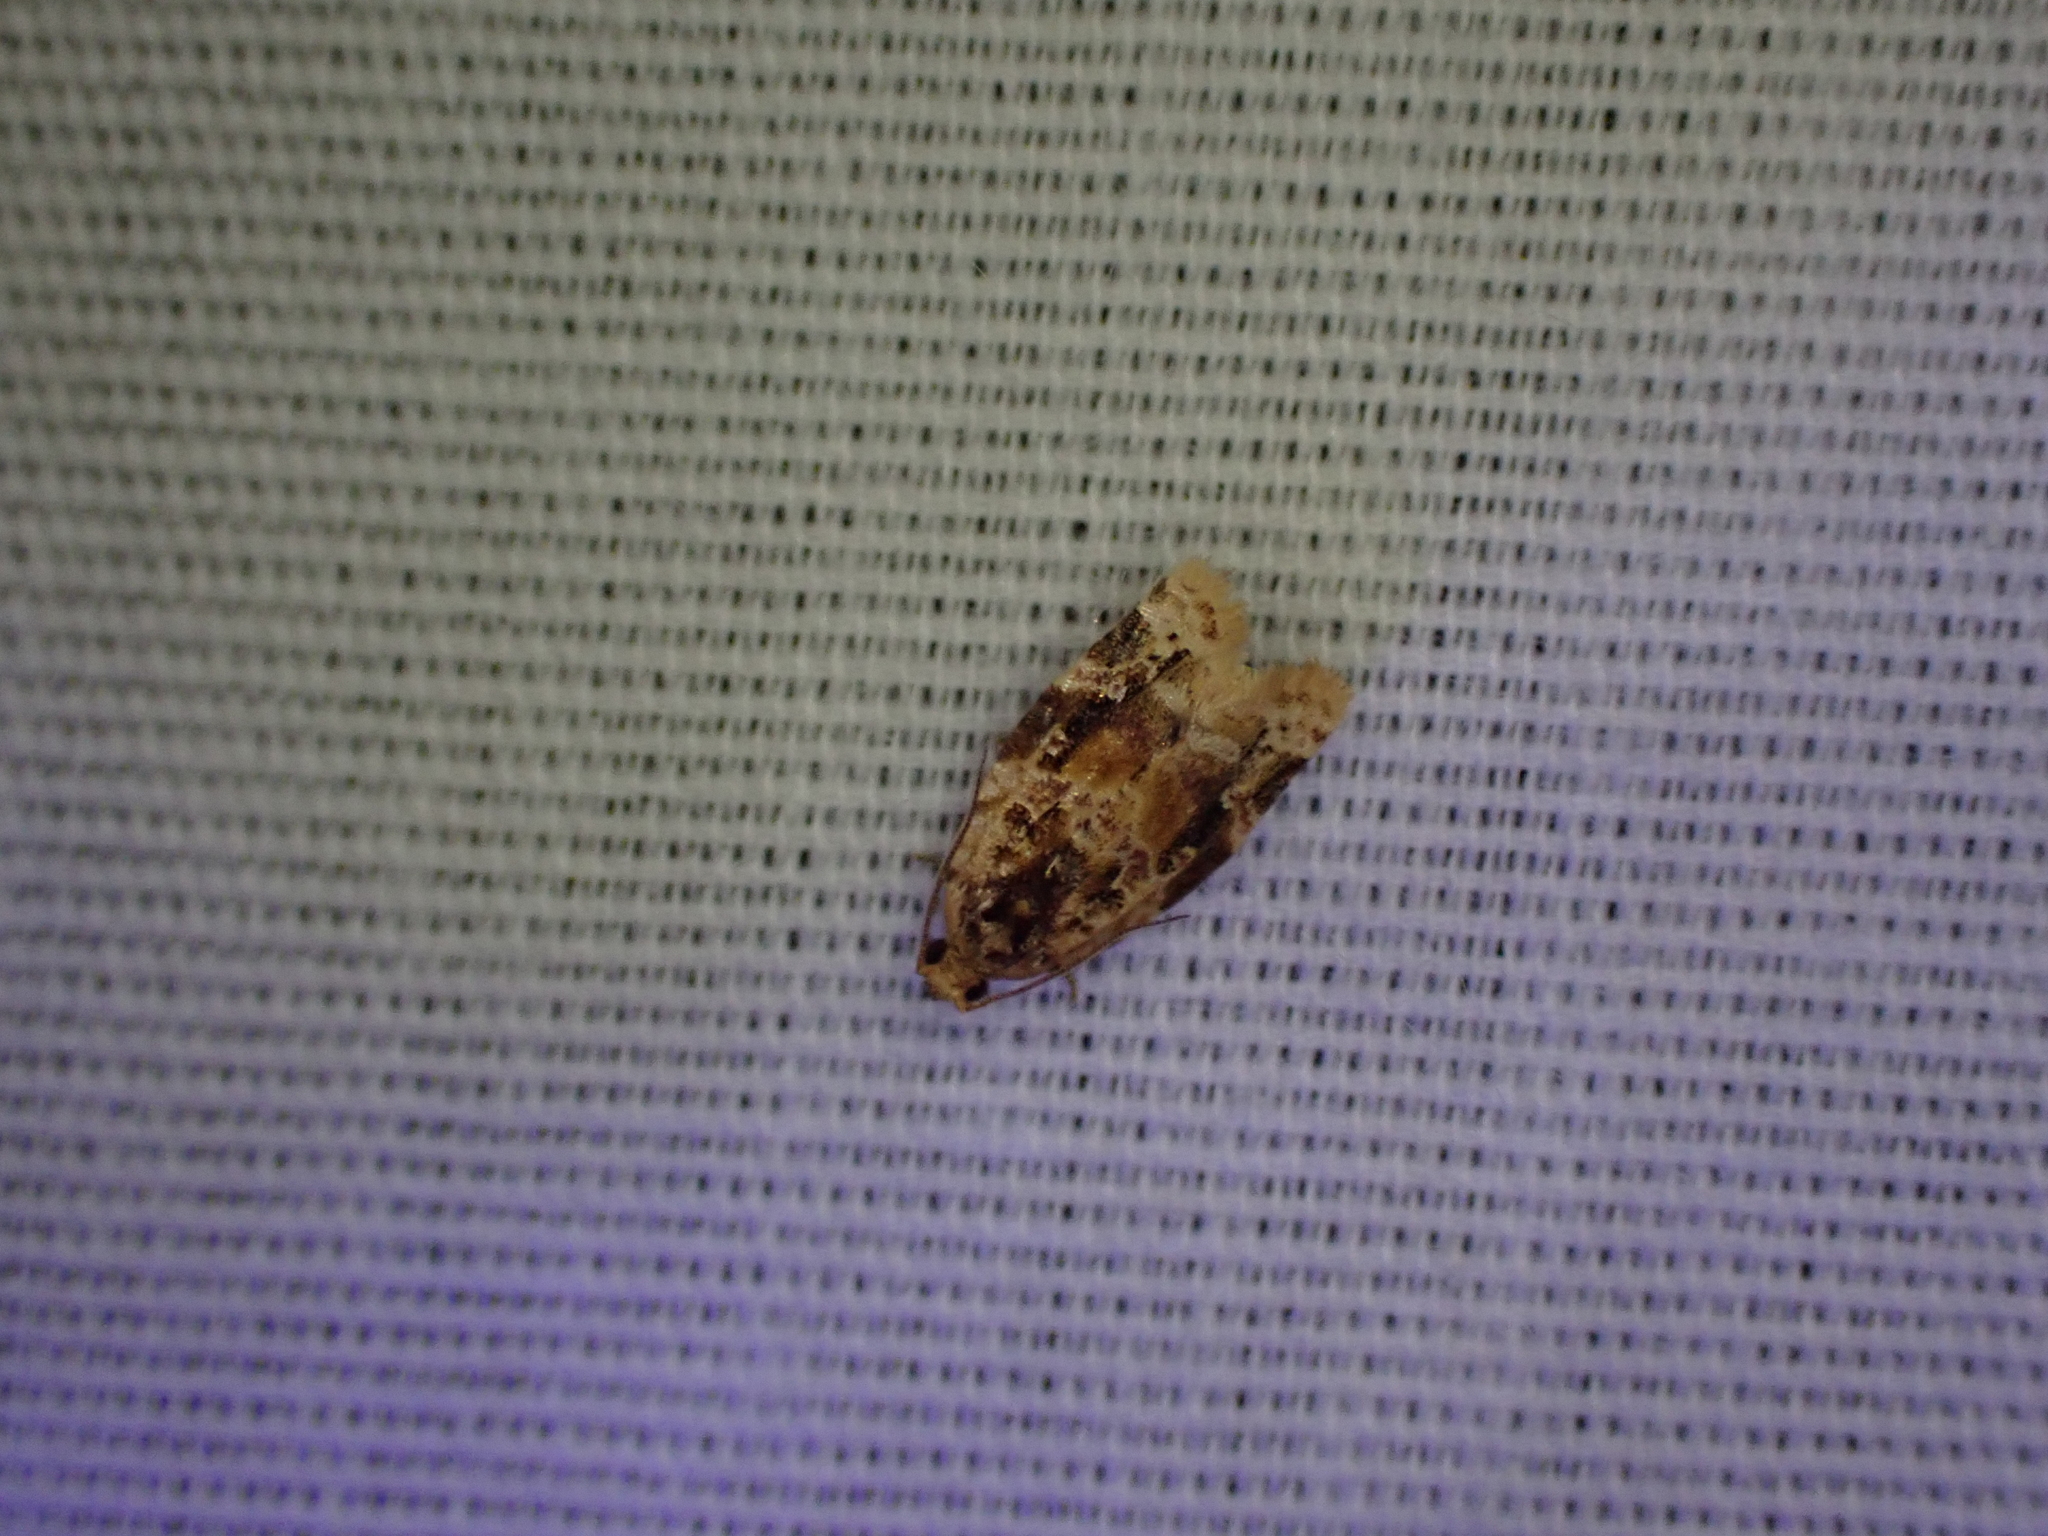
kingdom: Animalia
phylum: Arthropoda
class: Insecta
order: Lepidoptera
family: Tortricidae
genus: Argyrotaenia
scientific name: Argyrotaenia velutinana
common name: Red-banded leafroller moth
